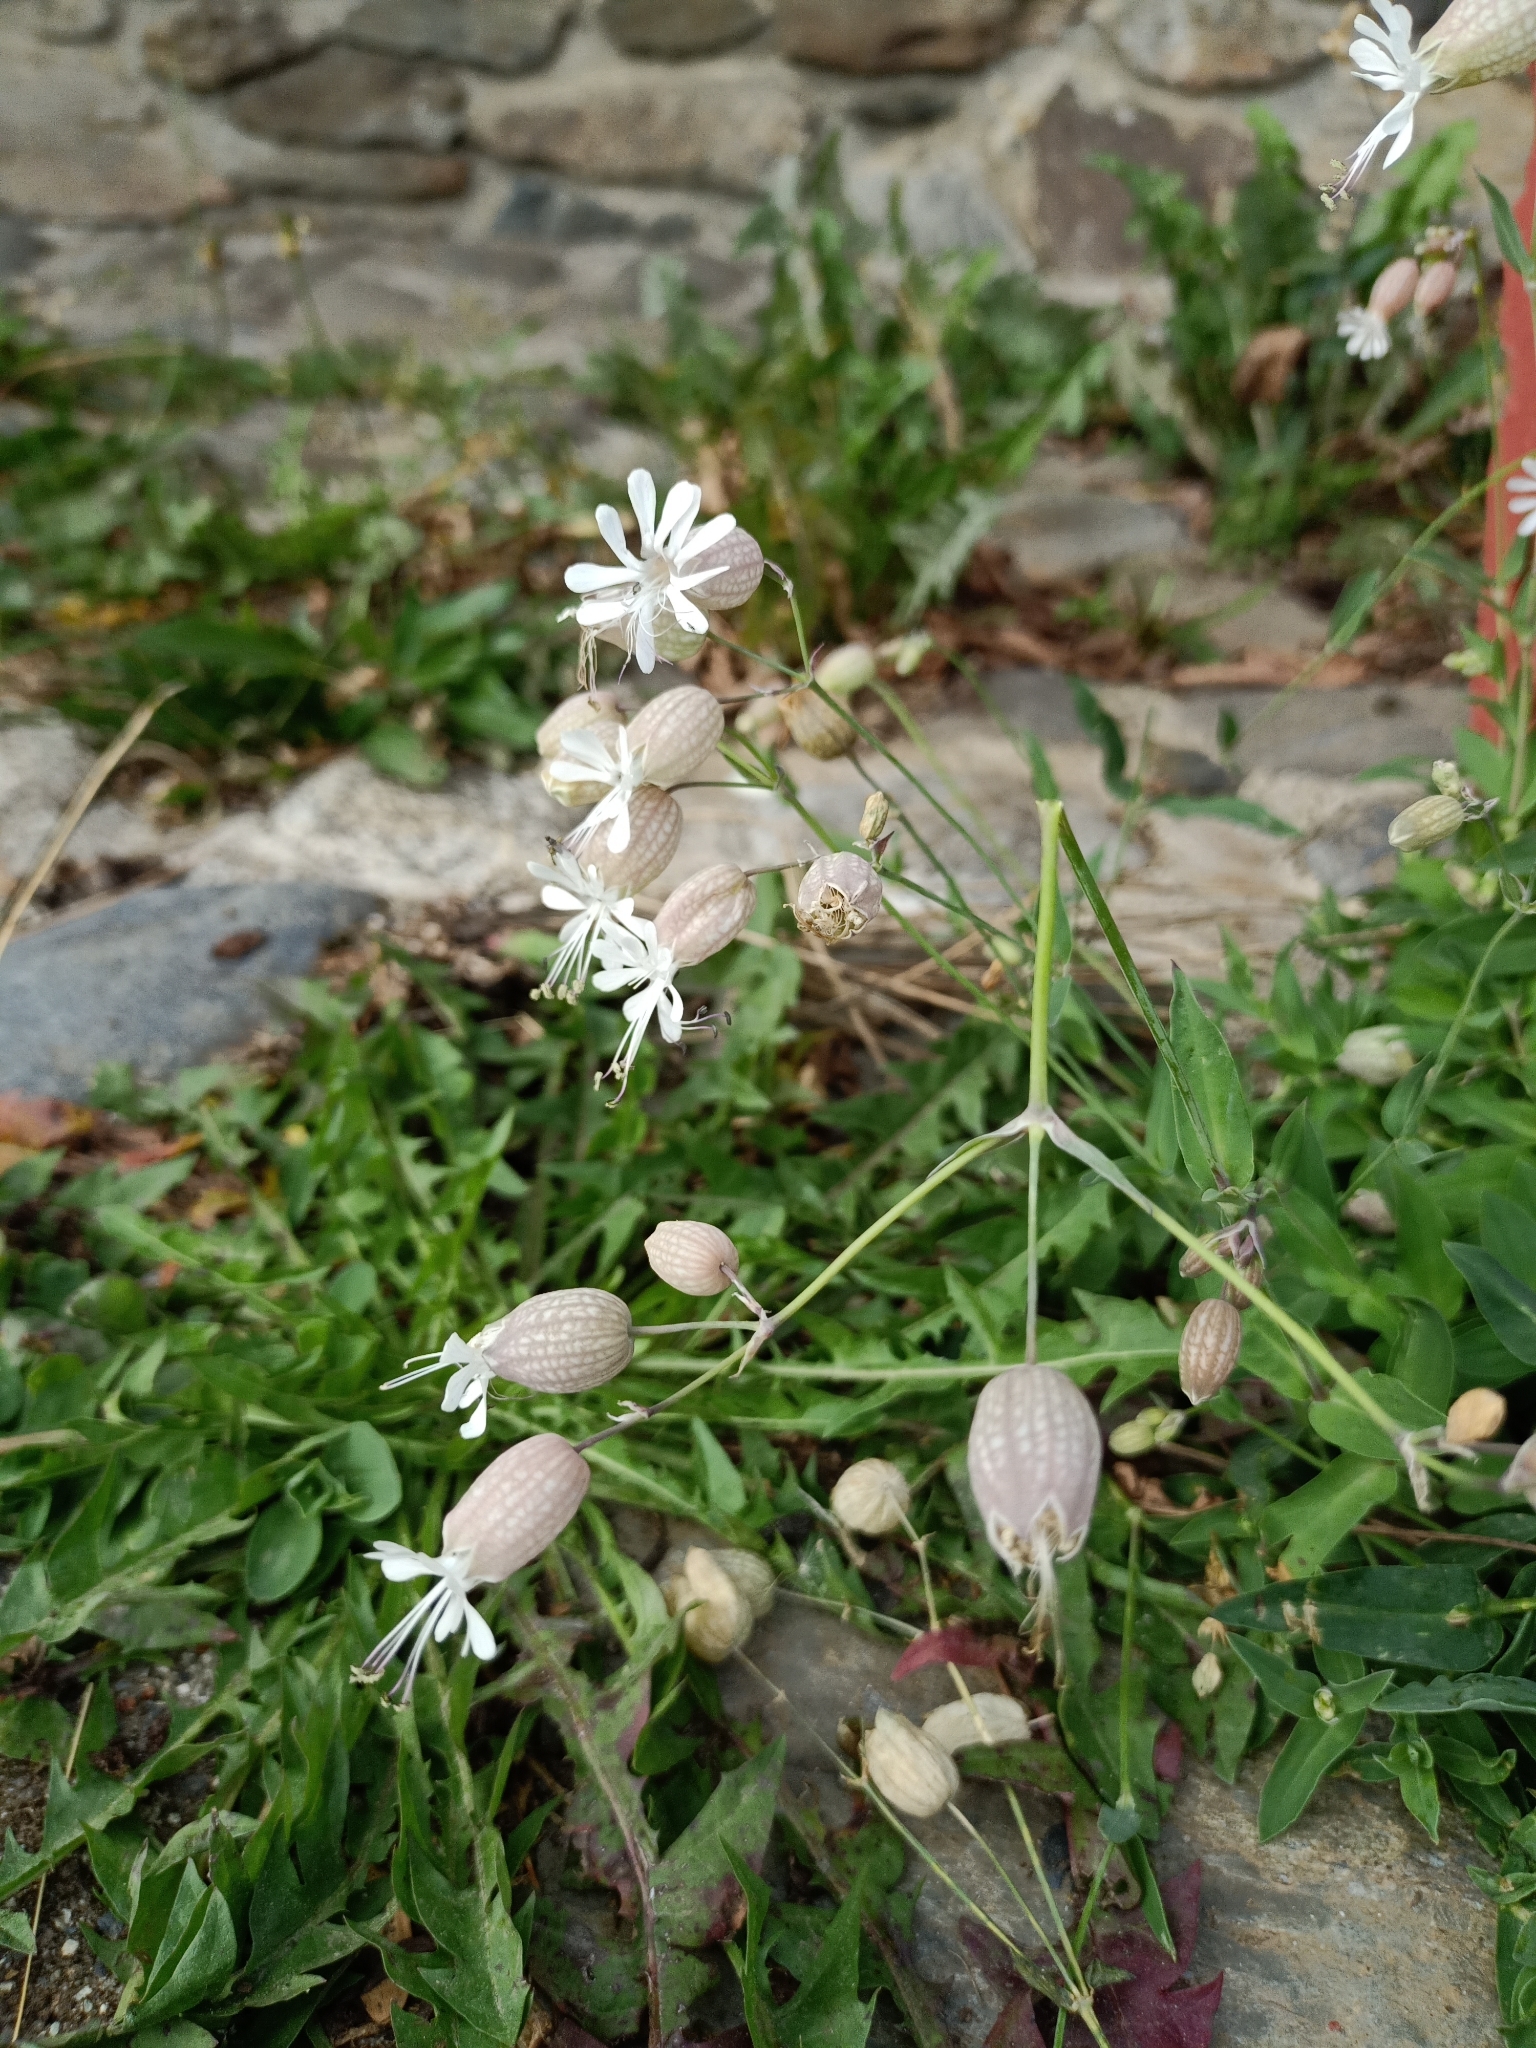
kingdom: Plantae
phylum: Tracheophyta
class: Magnoliopsida
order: Caryophyllales
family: Caryophyllaceae
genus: Silene
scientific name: Silene vulgaris
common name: Bladder campion
